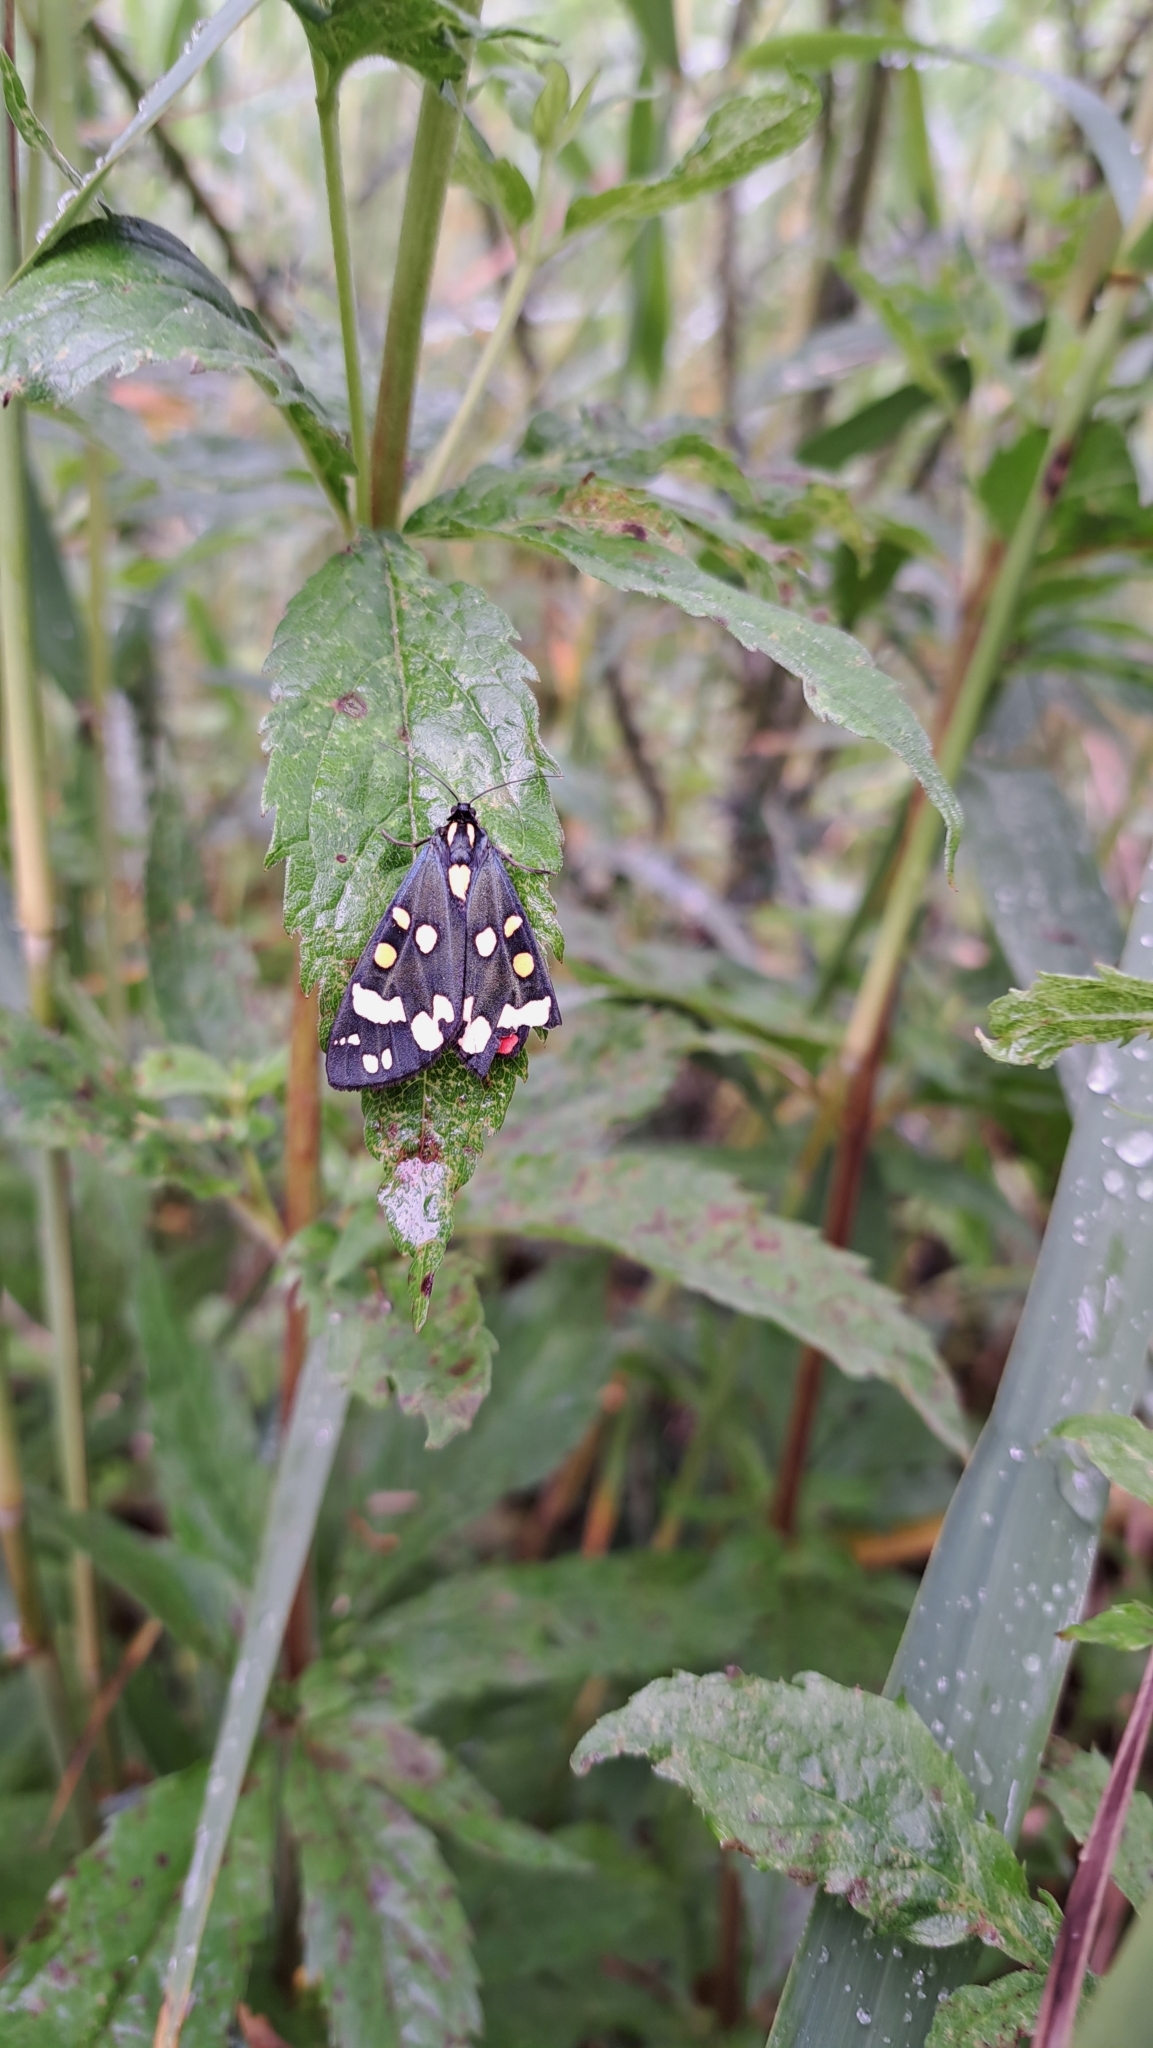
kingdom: Animalia
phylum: Arthropoda
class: Insecta
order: Lepidoptera
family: Erebidae
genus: Callimorpha
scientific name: Callimorpha dominula
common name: Scarlet tiger
